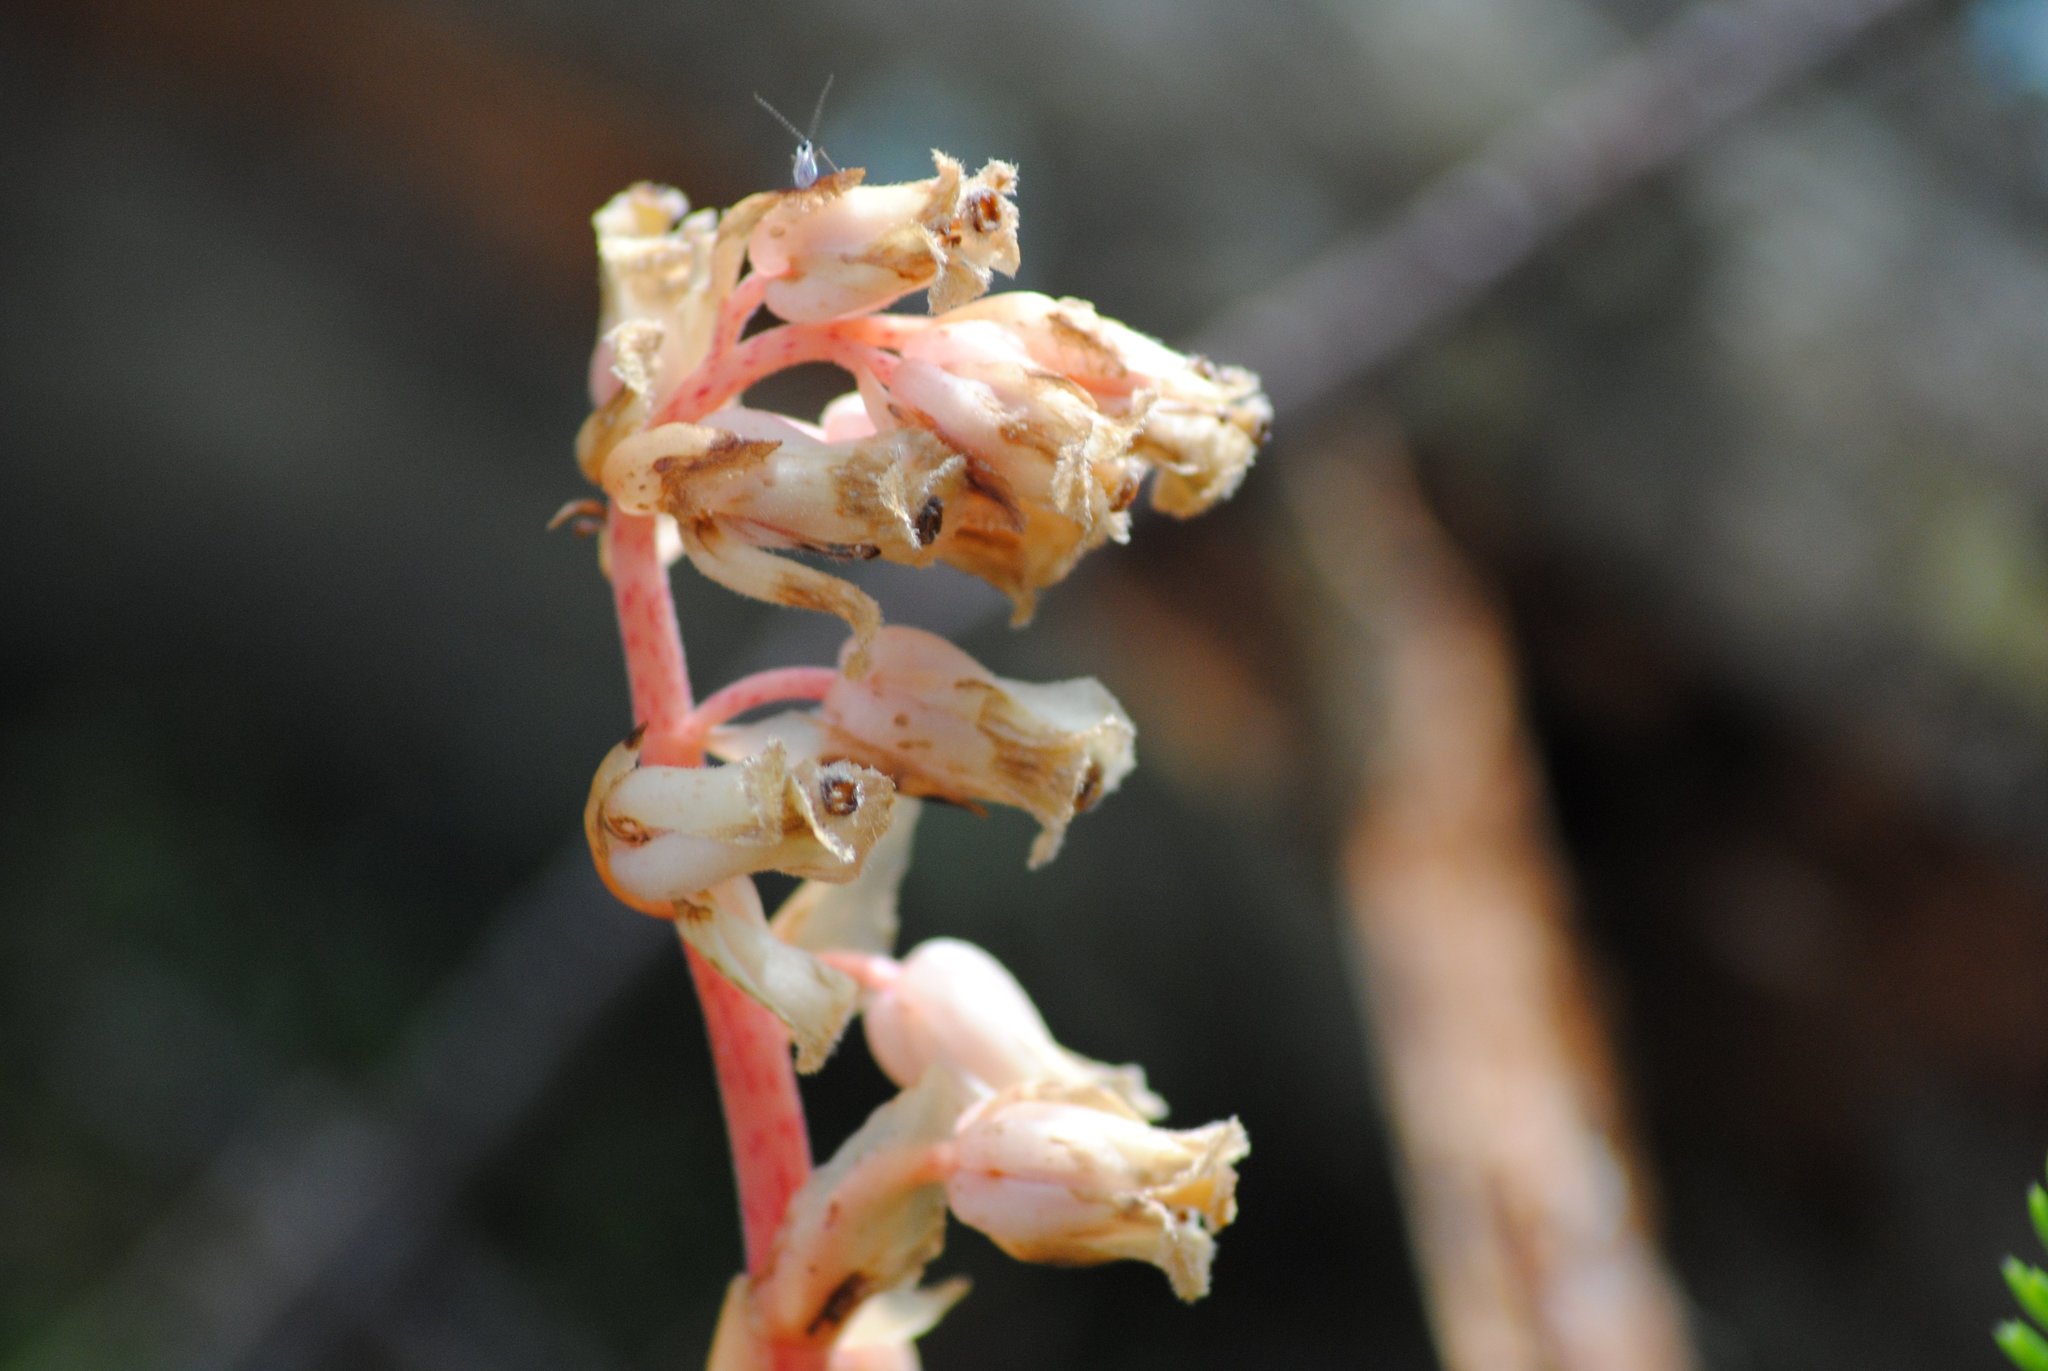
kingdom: Plantae
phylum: Tracheophyta
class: Magnoliopsida
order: Ericales
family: Ericaceae
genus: Hypopitys
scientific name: Hypopitys monotropa
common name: Yellow bird's-nest
